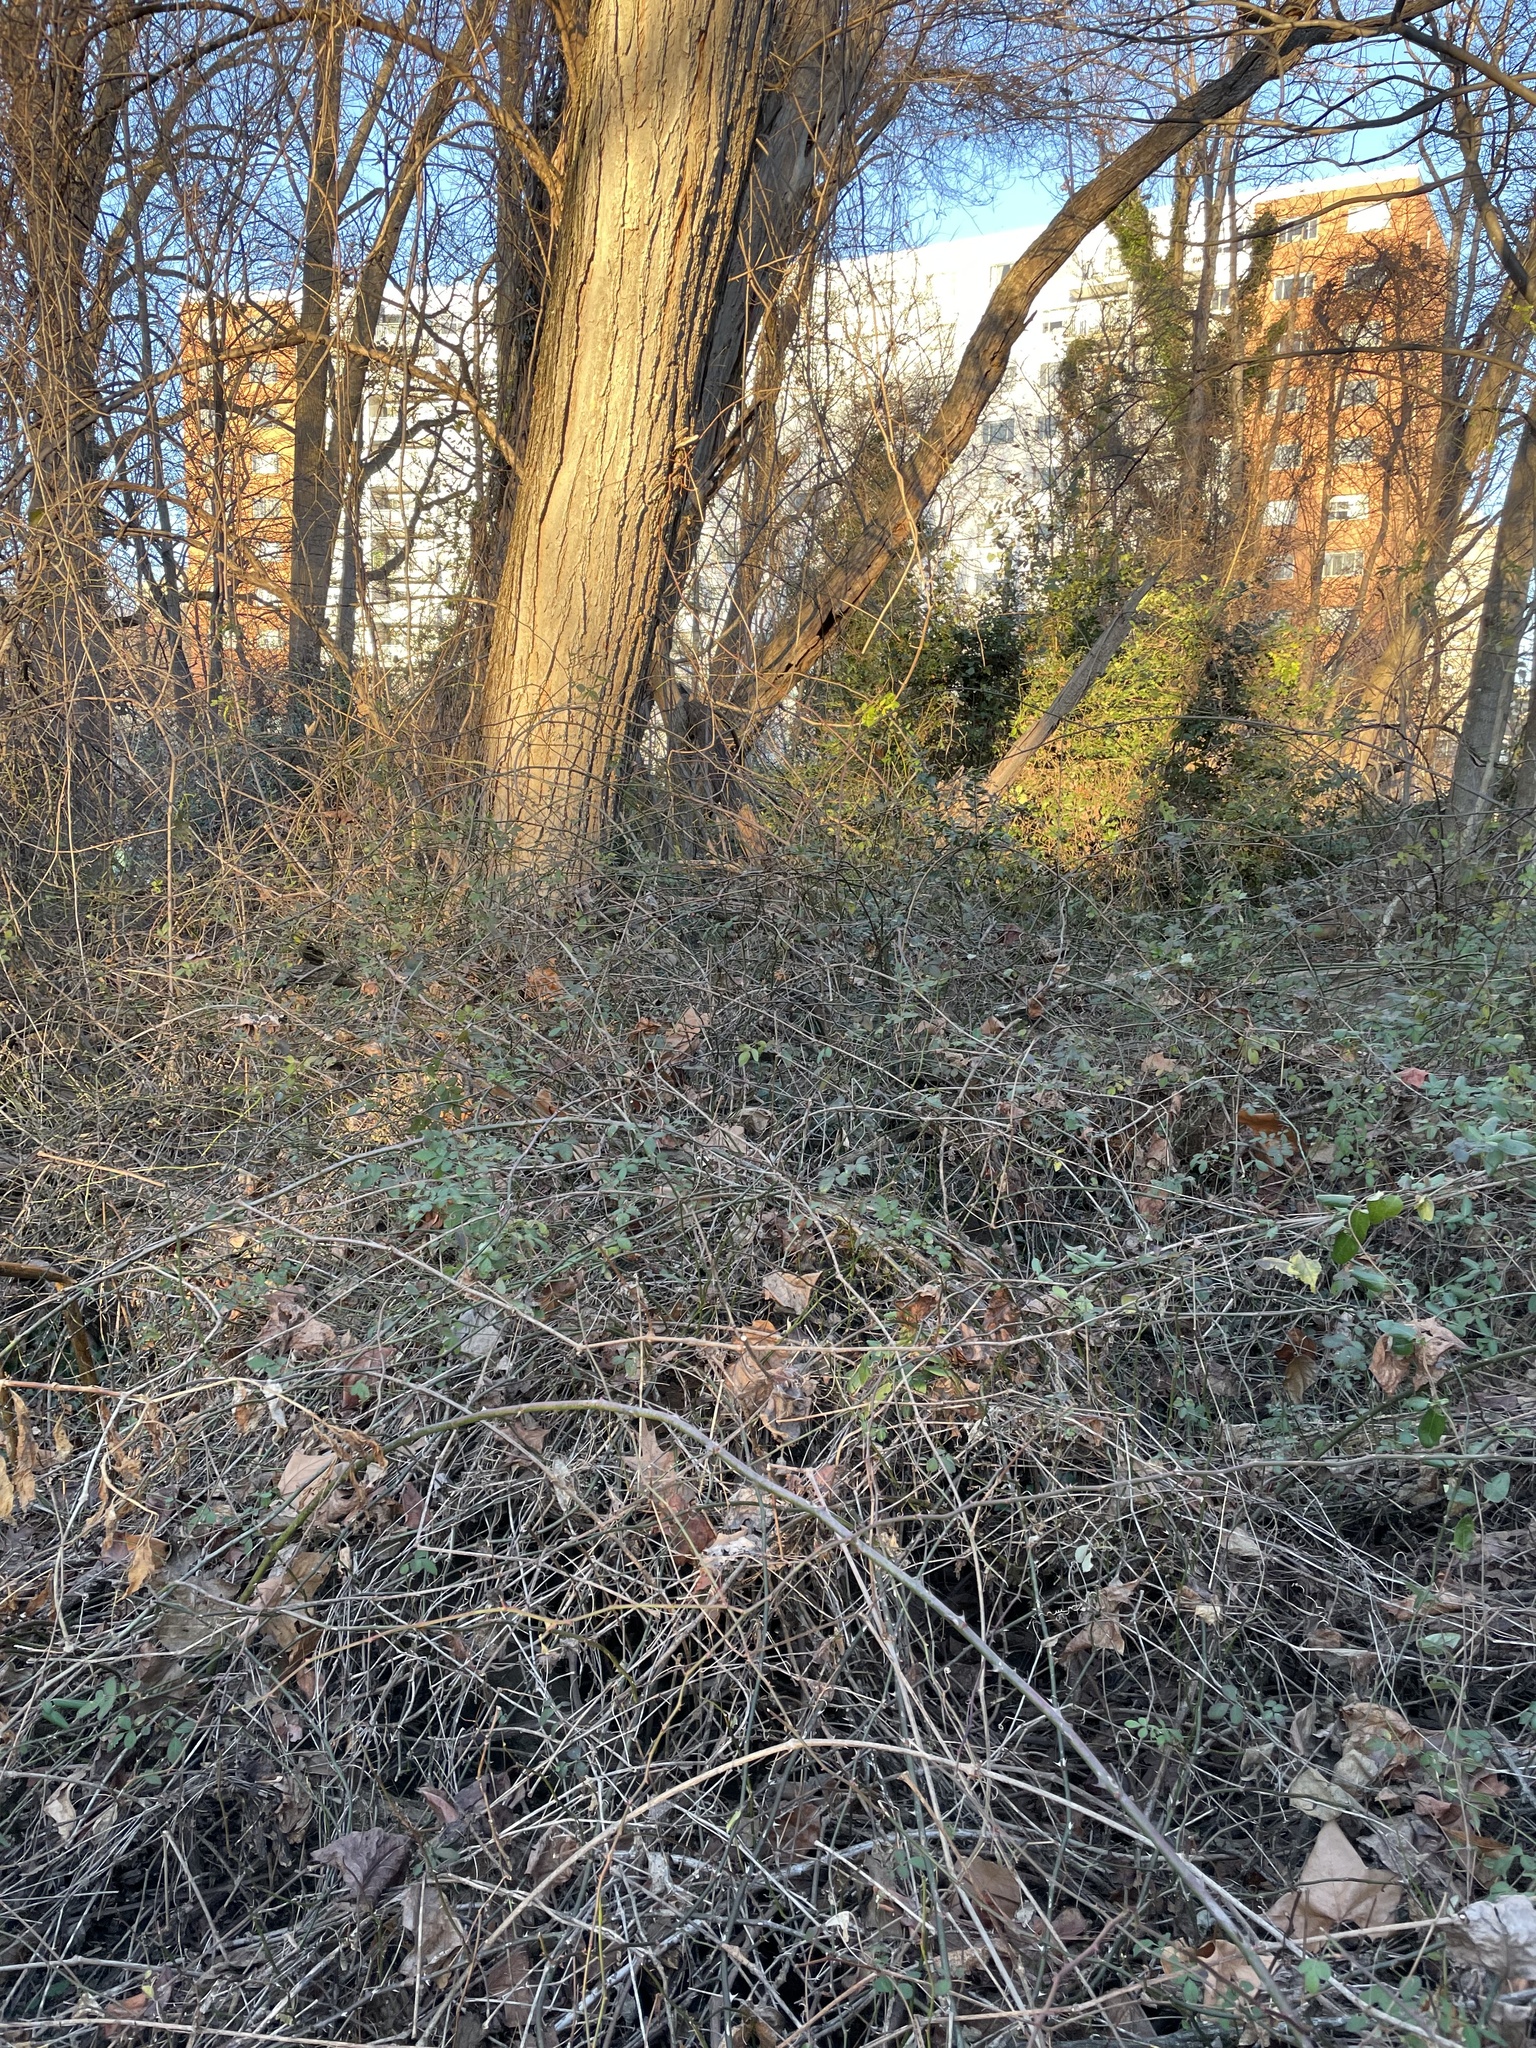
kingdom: Plantae
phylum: Tracheophyta
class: Magnoliopsida
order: Rosales
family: Rosaceae
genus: Rosa
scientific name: Rosa multiflora
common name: Multiflora rose
